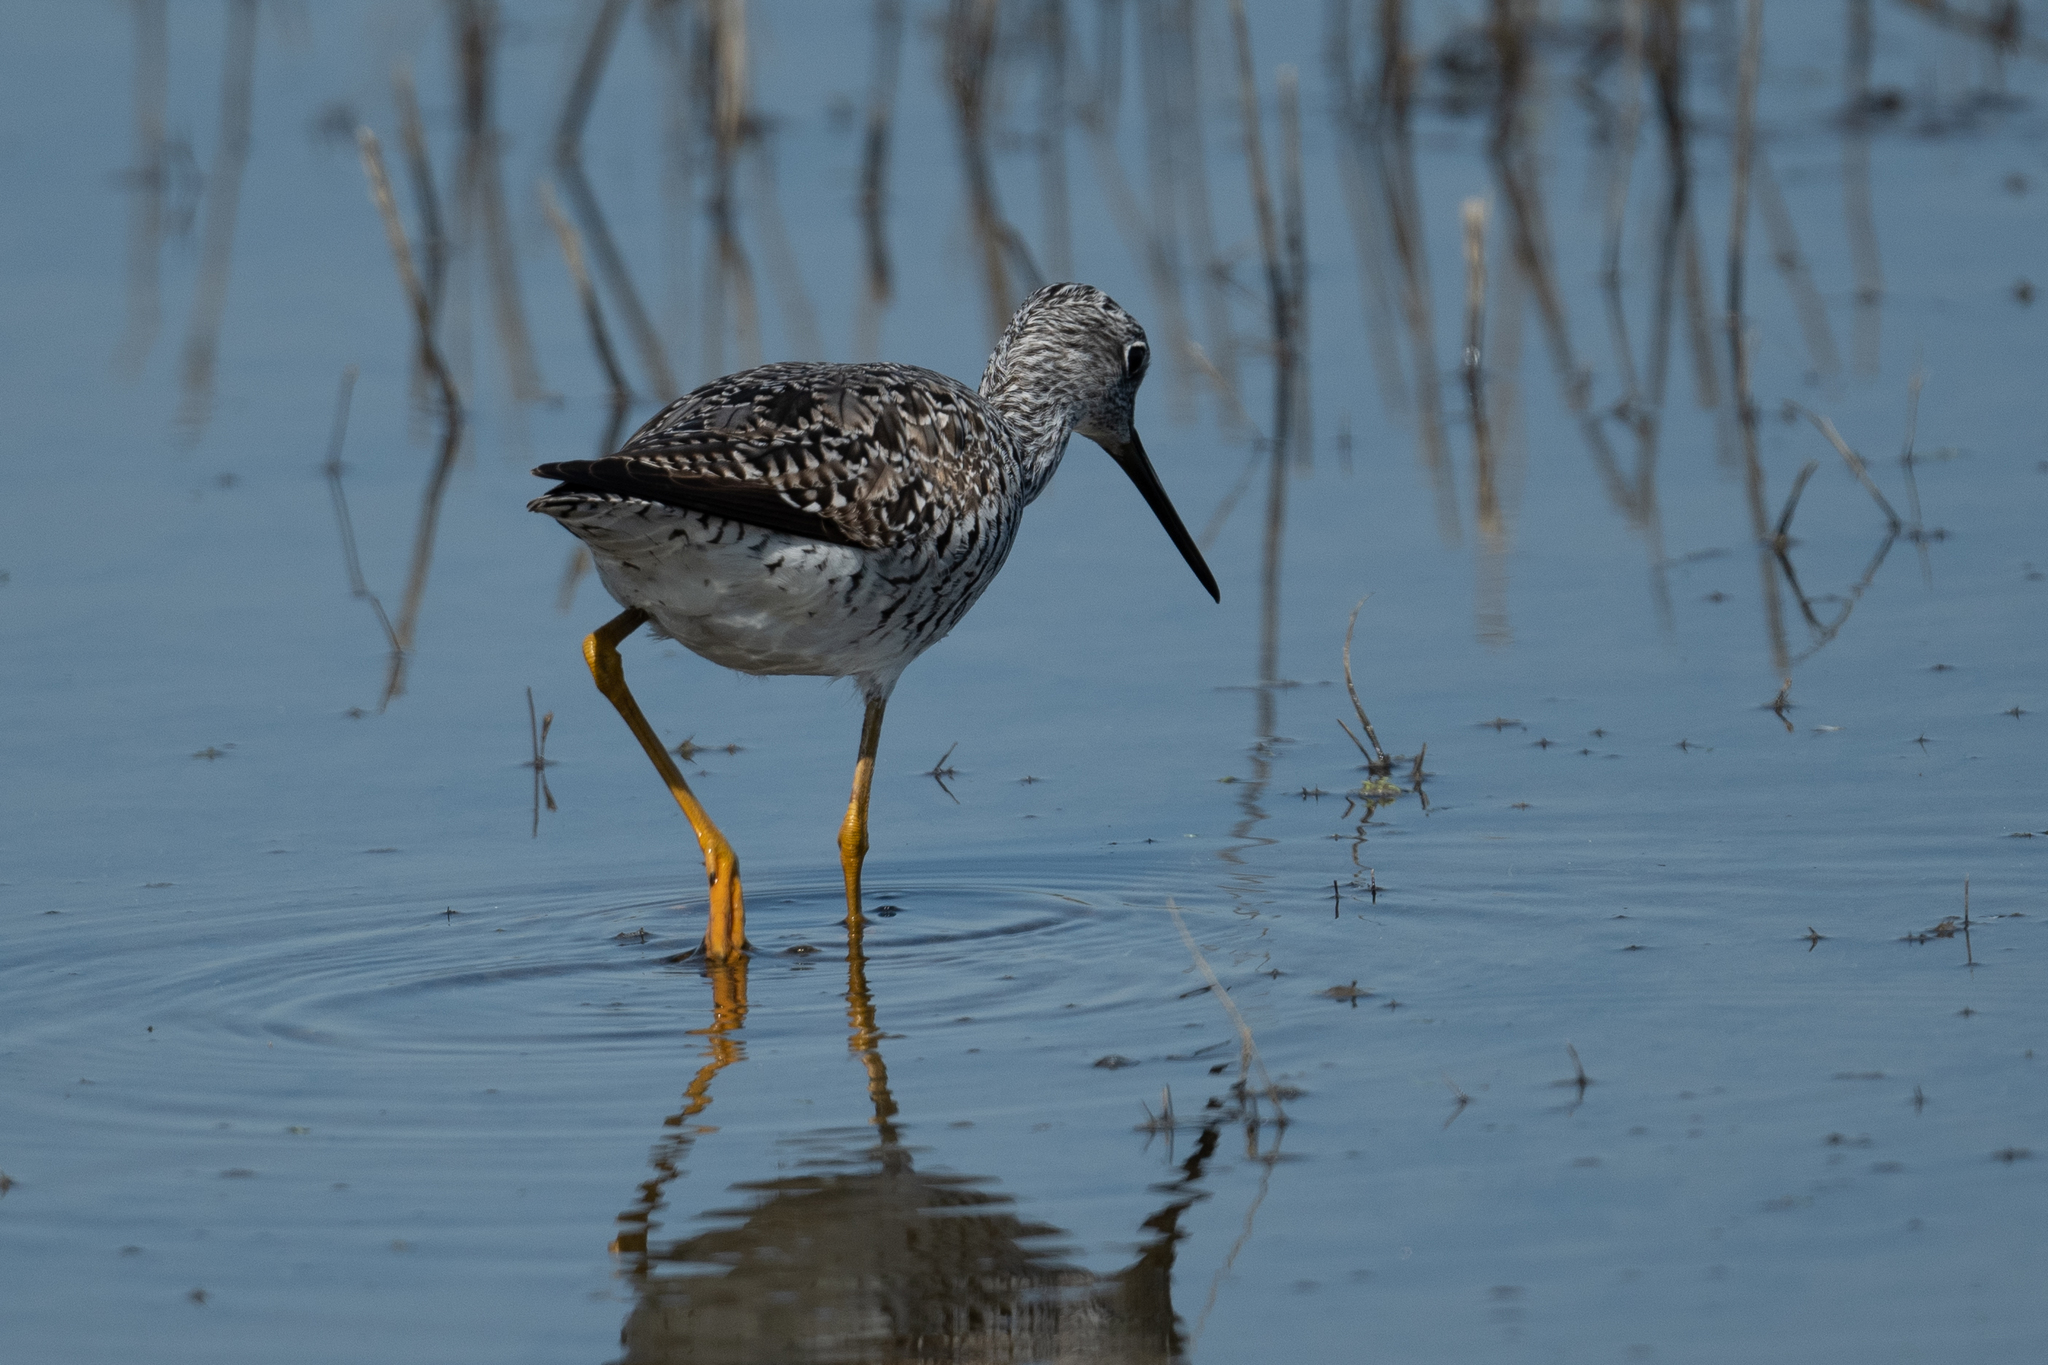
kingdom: Animalia
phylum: Chordata
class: Aves
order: Charadriiformes
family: Scolopacidae
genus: Tringa
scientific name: Tringa melanoleuca
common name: Greater yellowlegs
